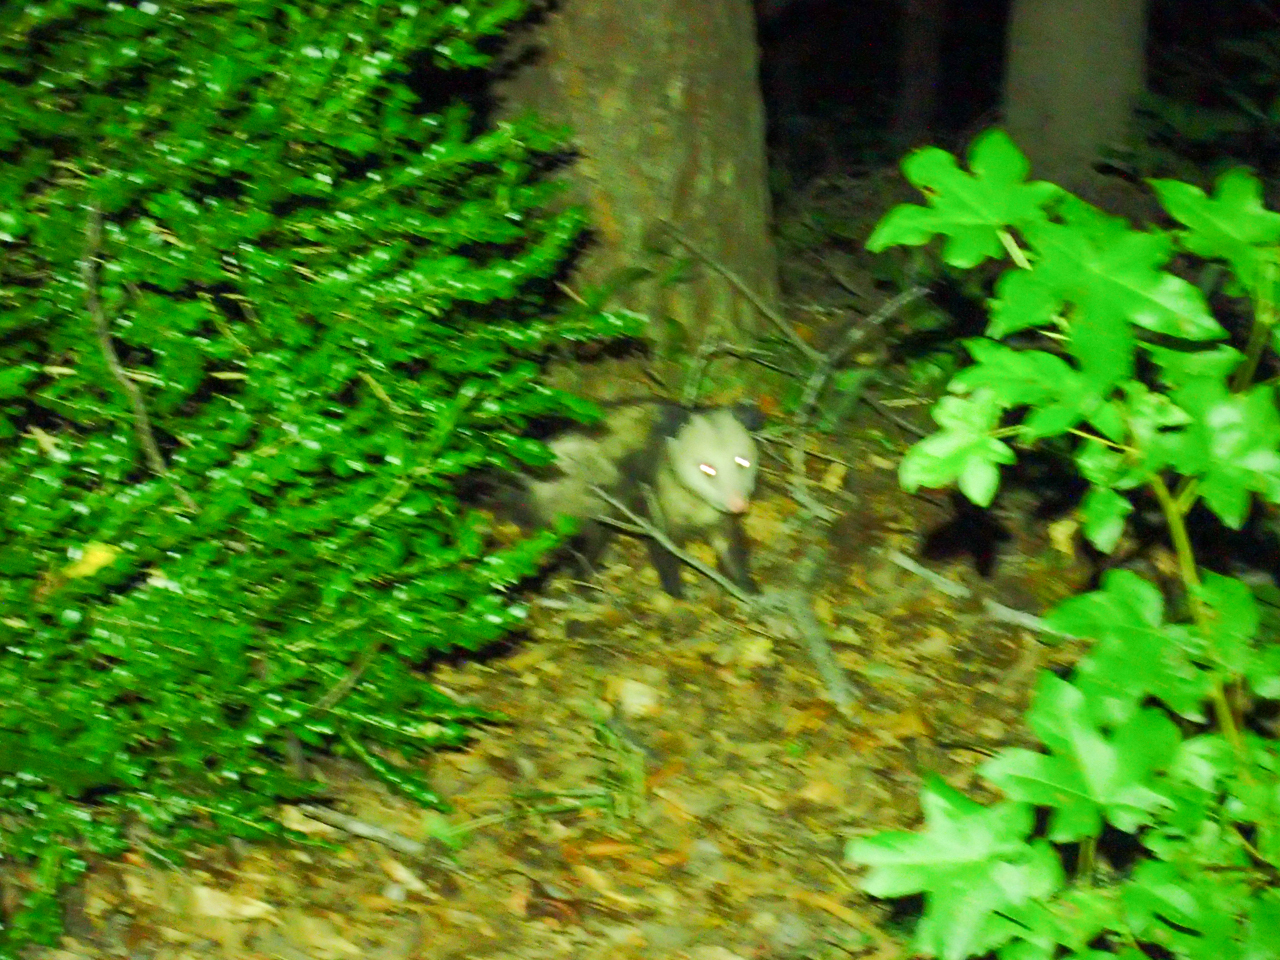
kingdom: Animalia
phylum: Chordata
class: Mammalia
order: Didelphimorphia
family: Didelphidae
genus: Didelphis
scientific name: Didelphis virginiana
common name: Virginia opossum
